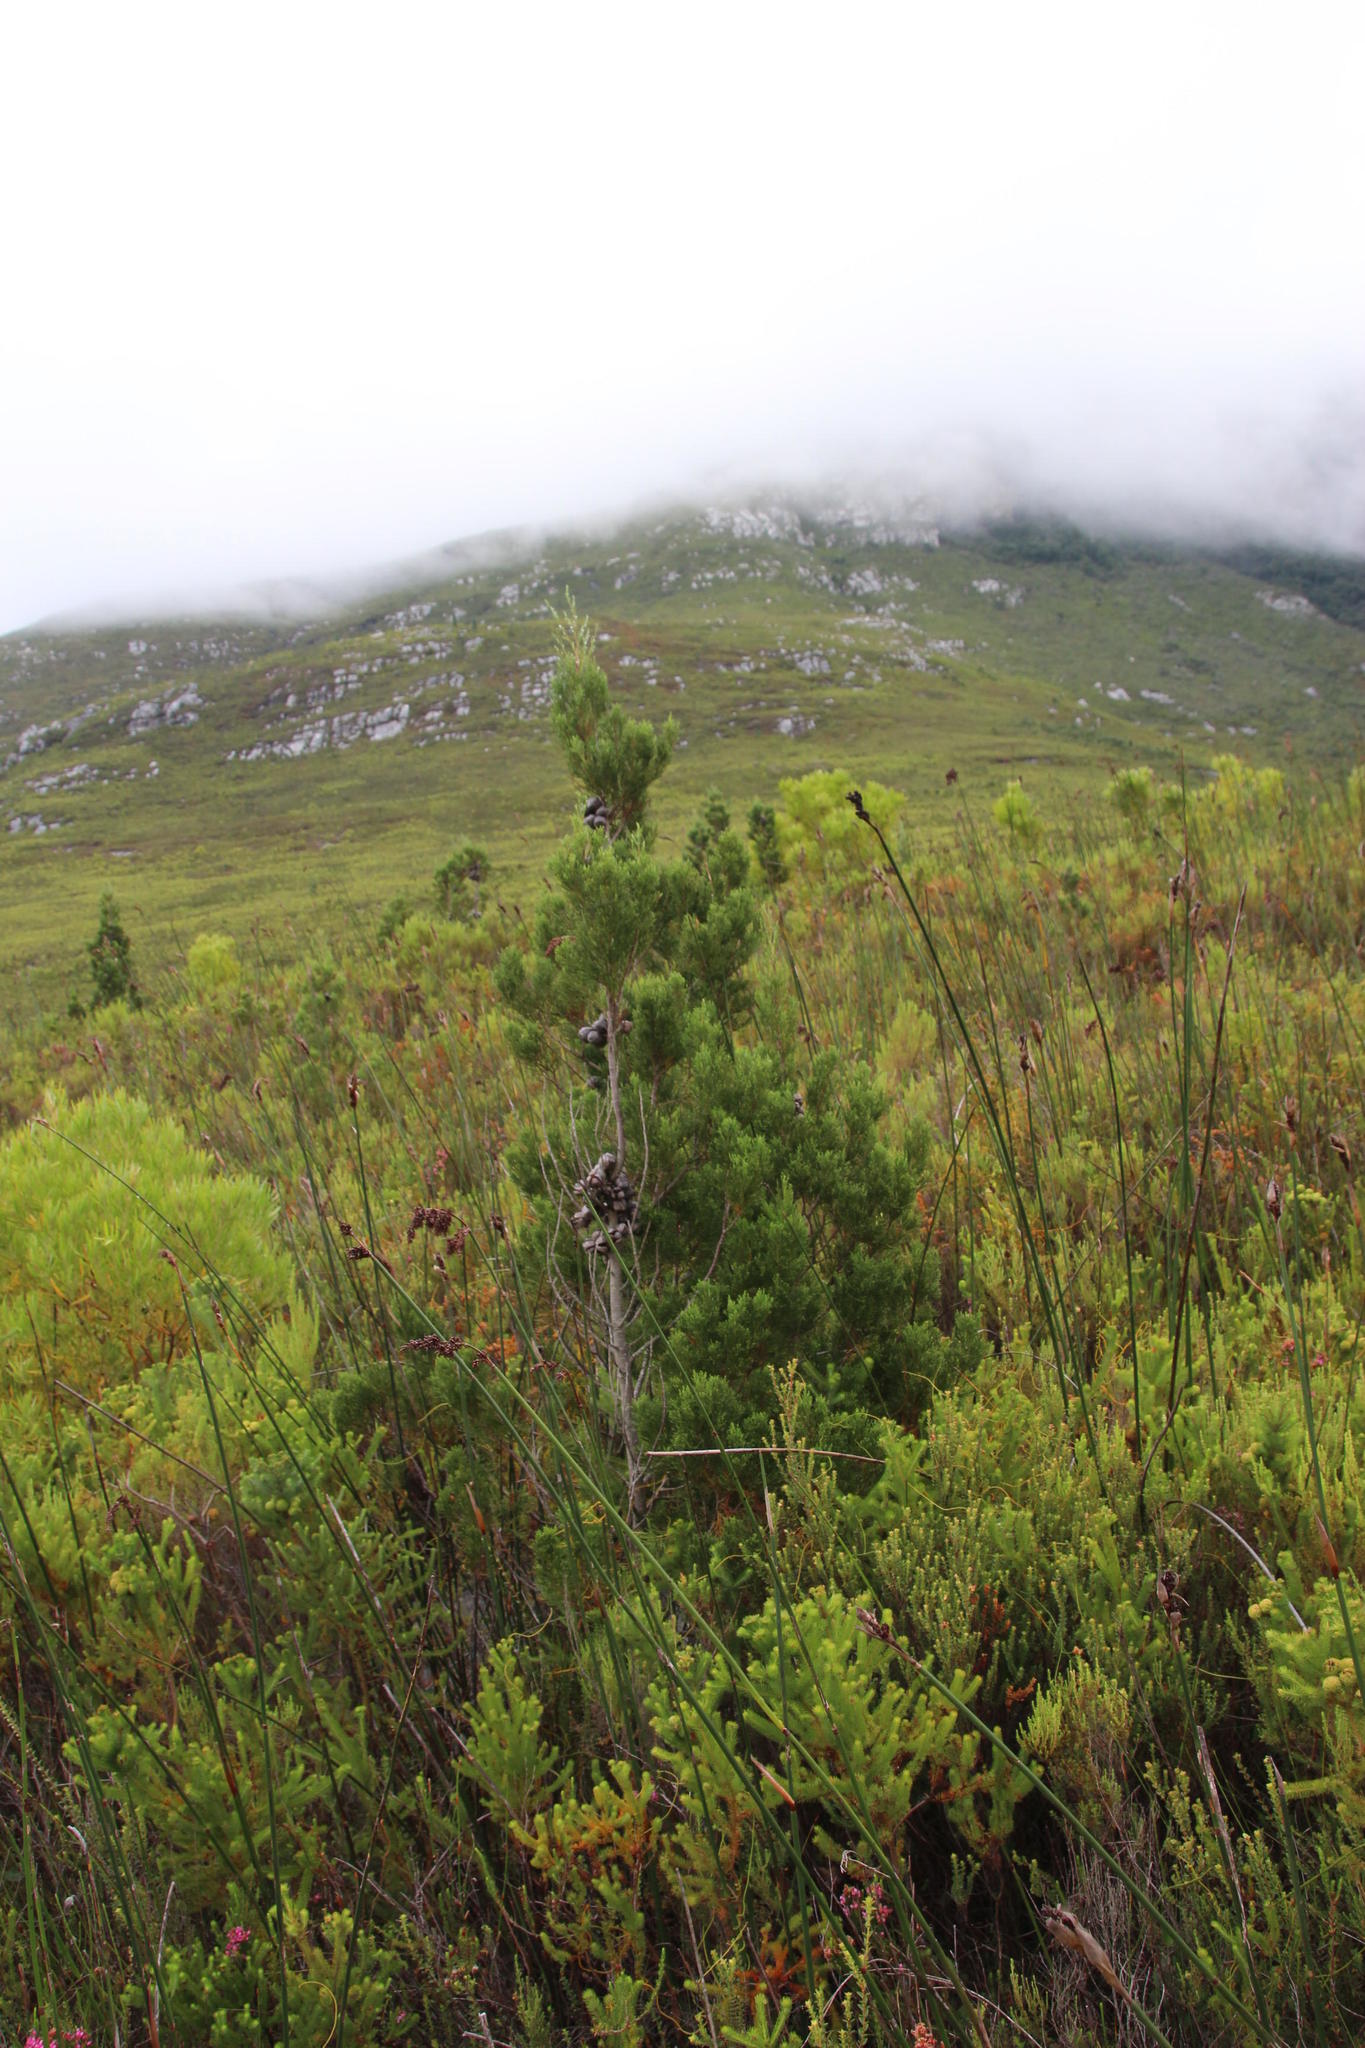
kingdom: Plantae
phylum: Tracheophyta
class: Pinopsida
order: Pinales
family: Cupressaceae
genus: Widdringtonia
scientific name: Widdringtonia nodiflora
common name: Cape cypress
